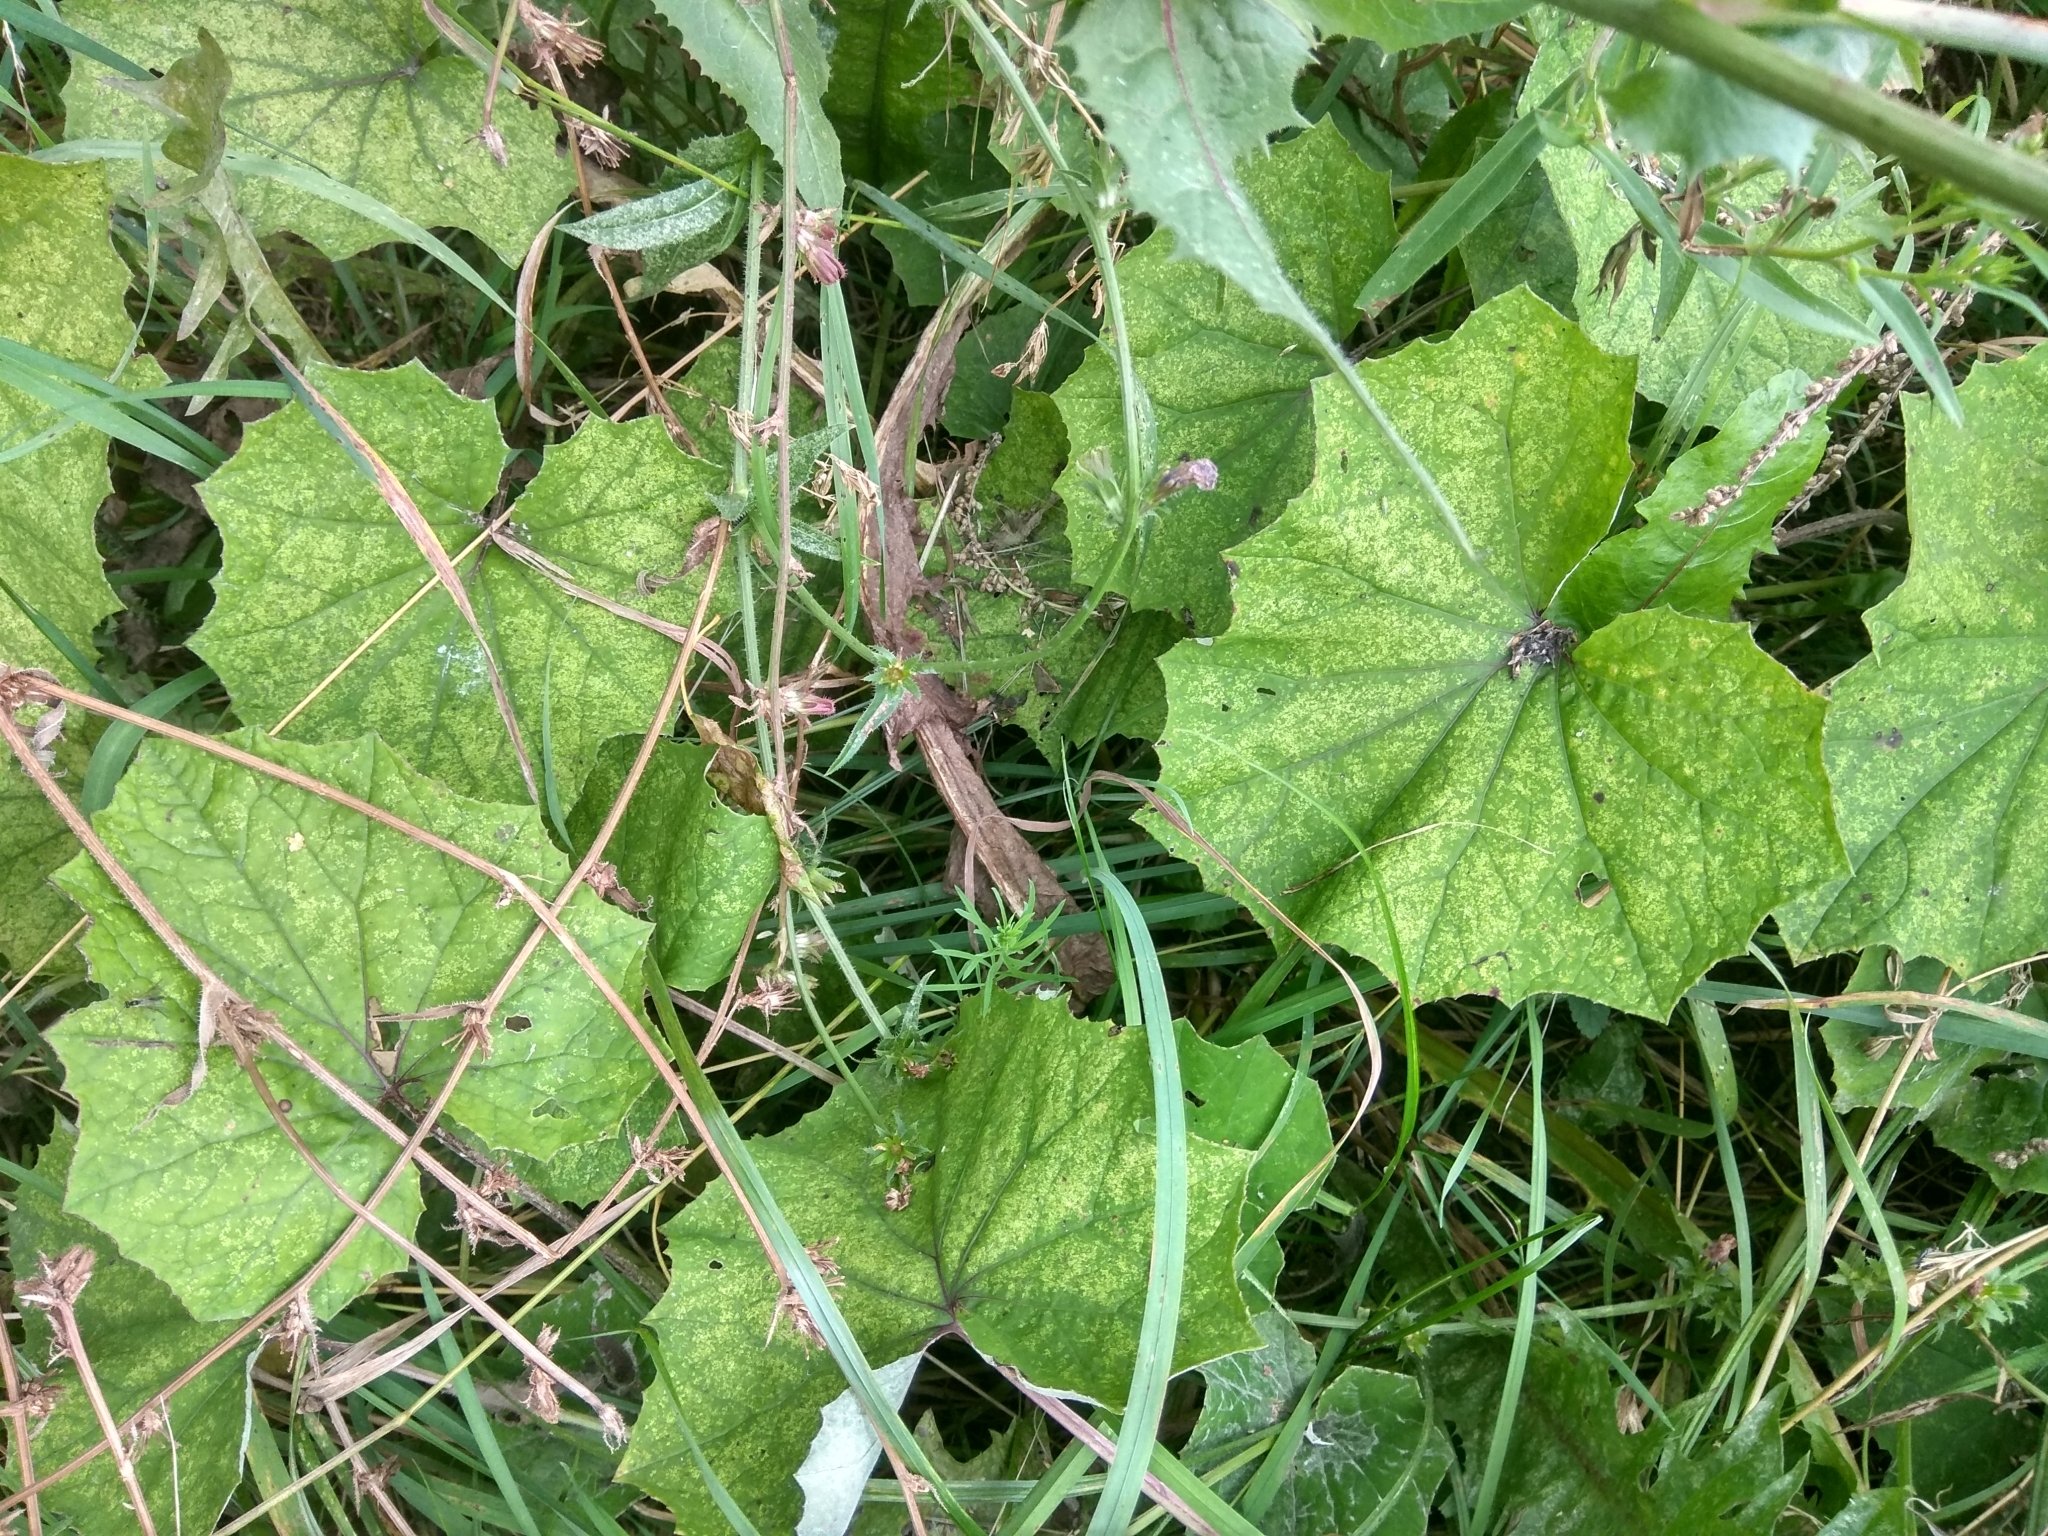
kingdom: Plantae
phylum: Tracheophyta
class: Magnoliopsida
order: Asterales
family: Asteraceae
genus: Tussilago
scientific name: Tussilago farfara
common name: Coltsfoot
